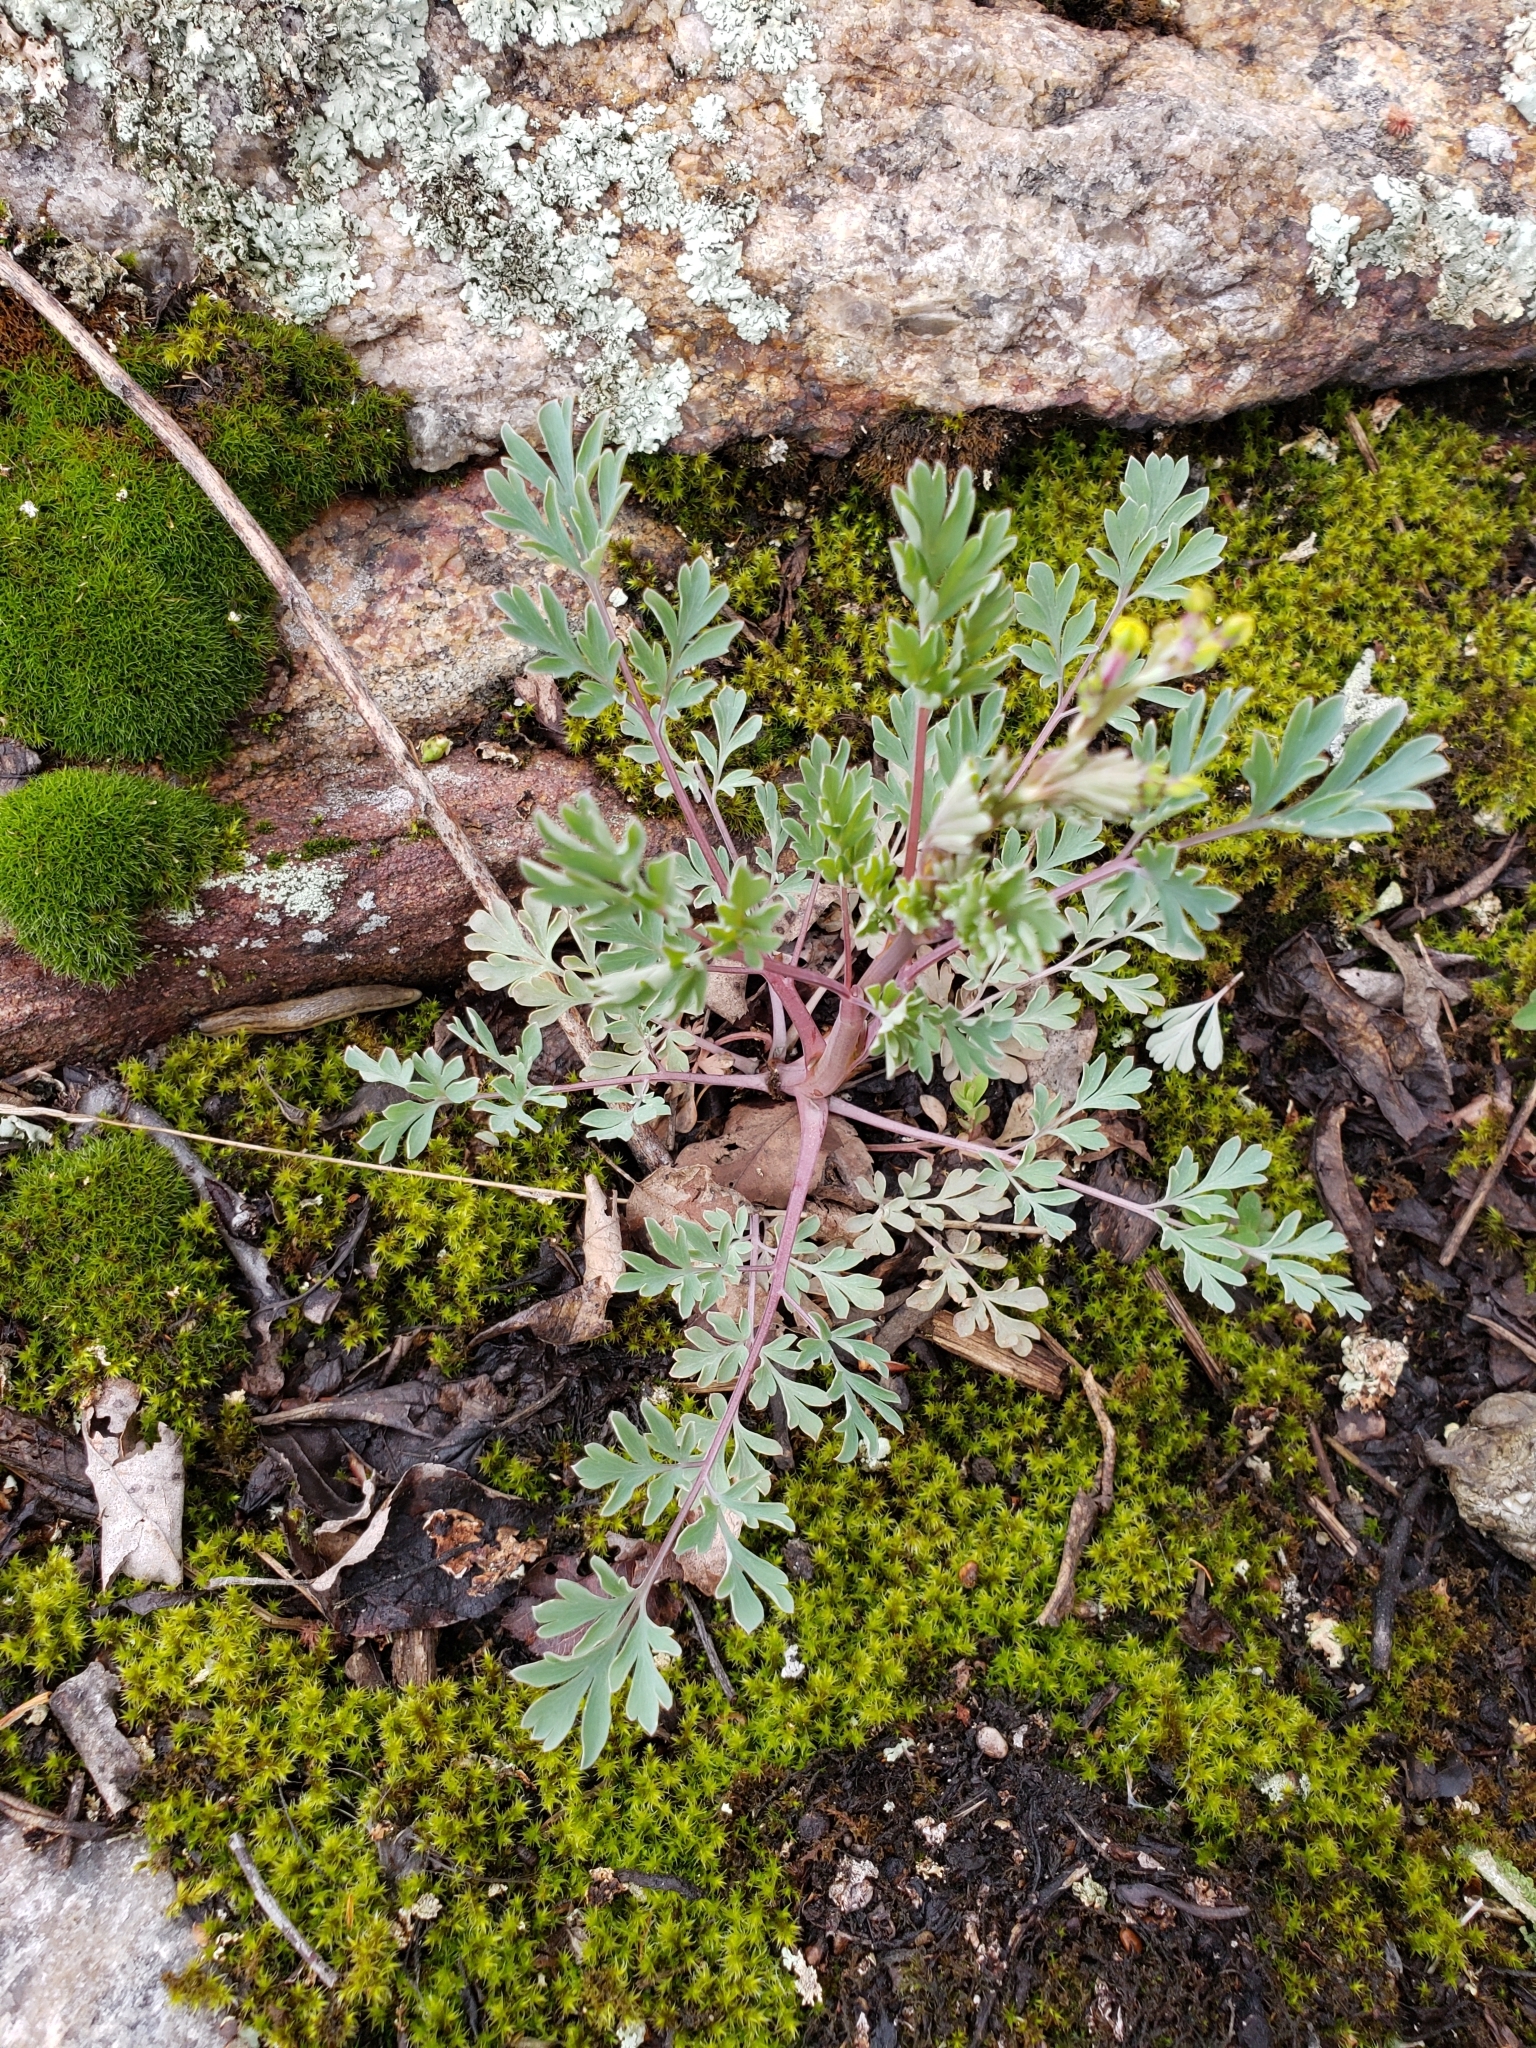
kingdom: Plantae
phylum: Tracheophyta
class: Magnoliopsida
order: Ranunculales
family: Papaveraceae
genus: Capnoides
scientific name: Capnoides sempervirens
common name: Rock harlequin
